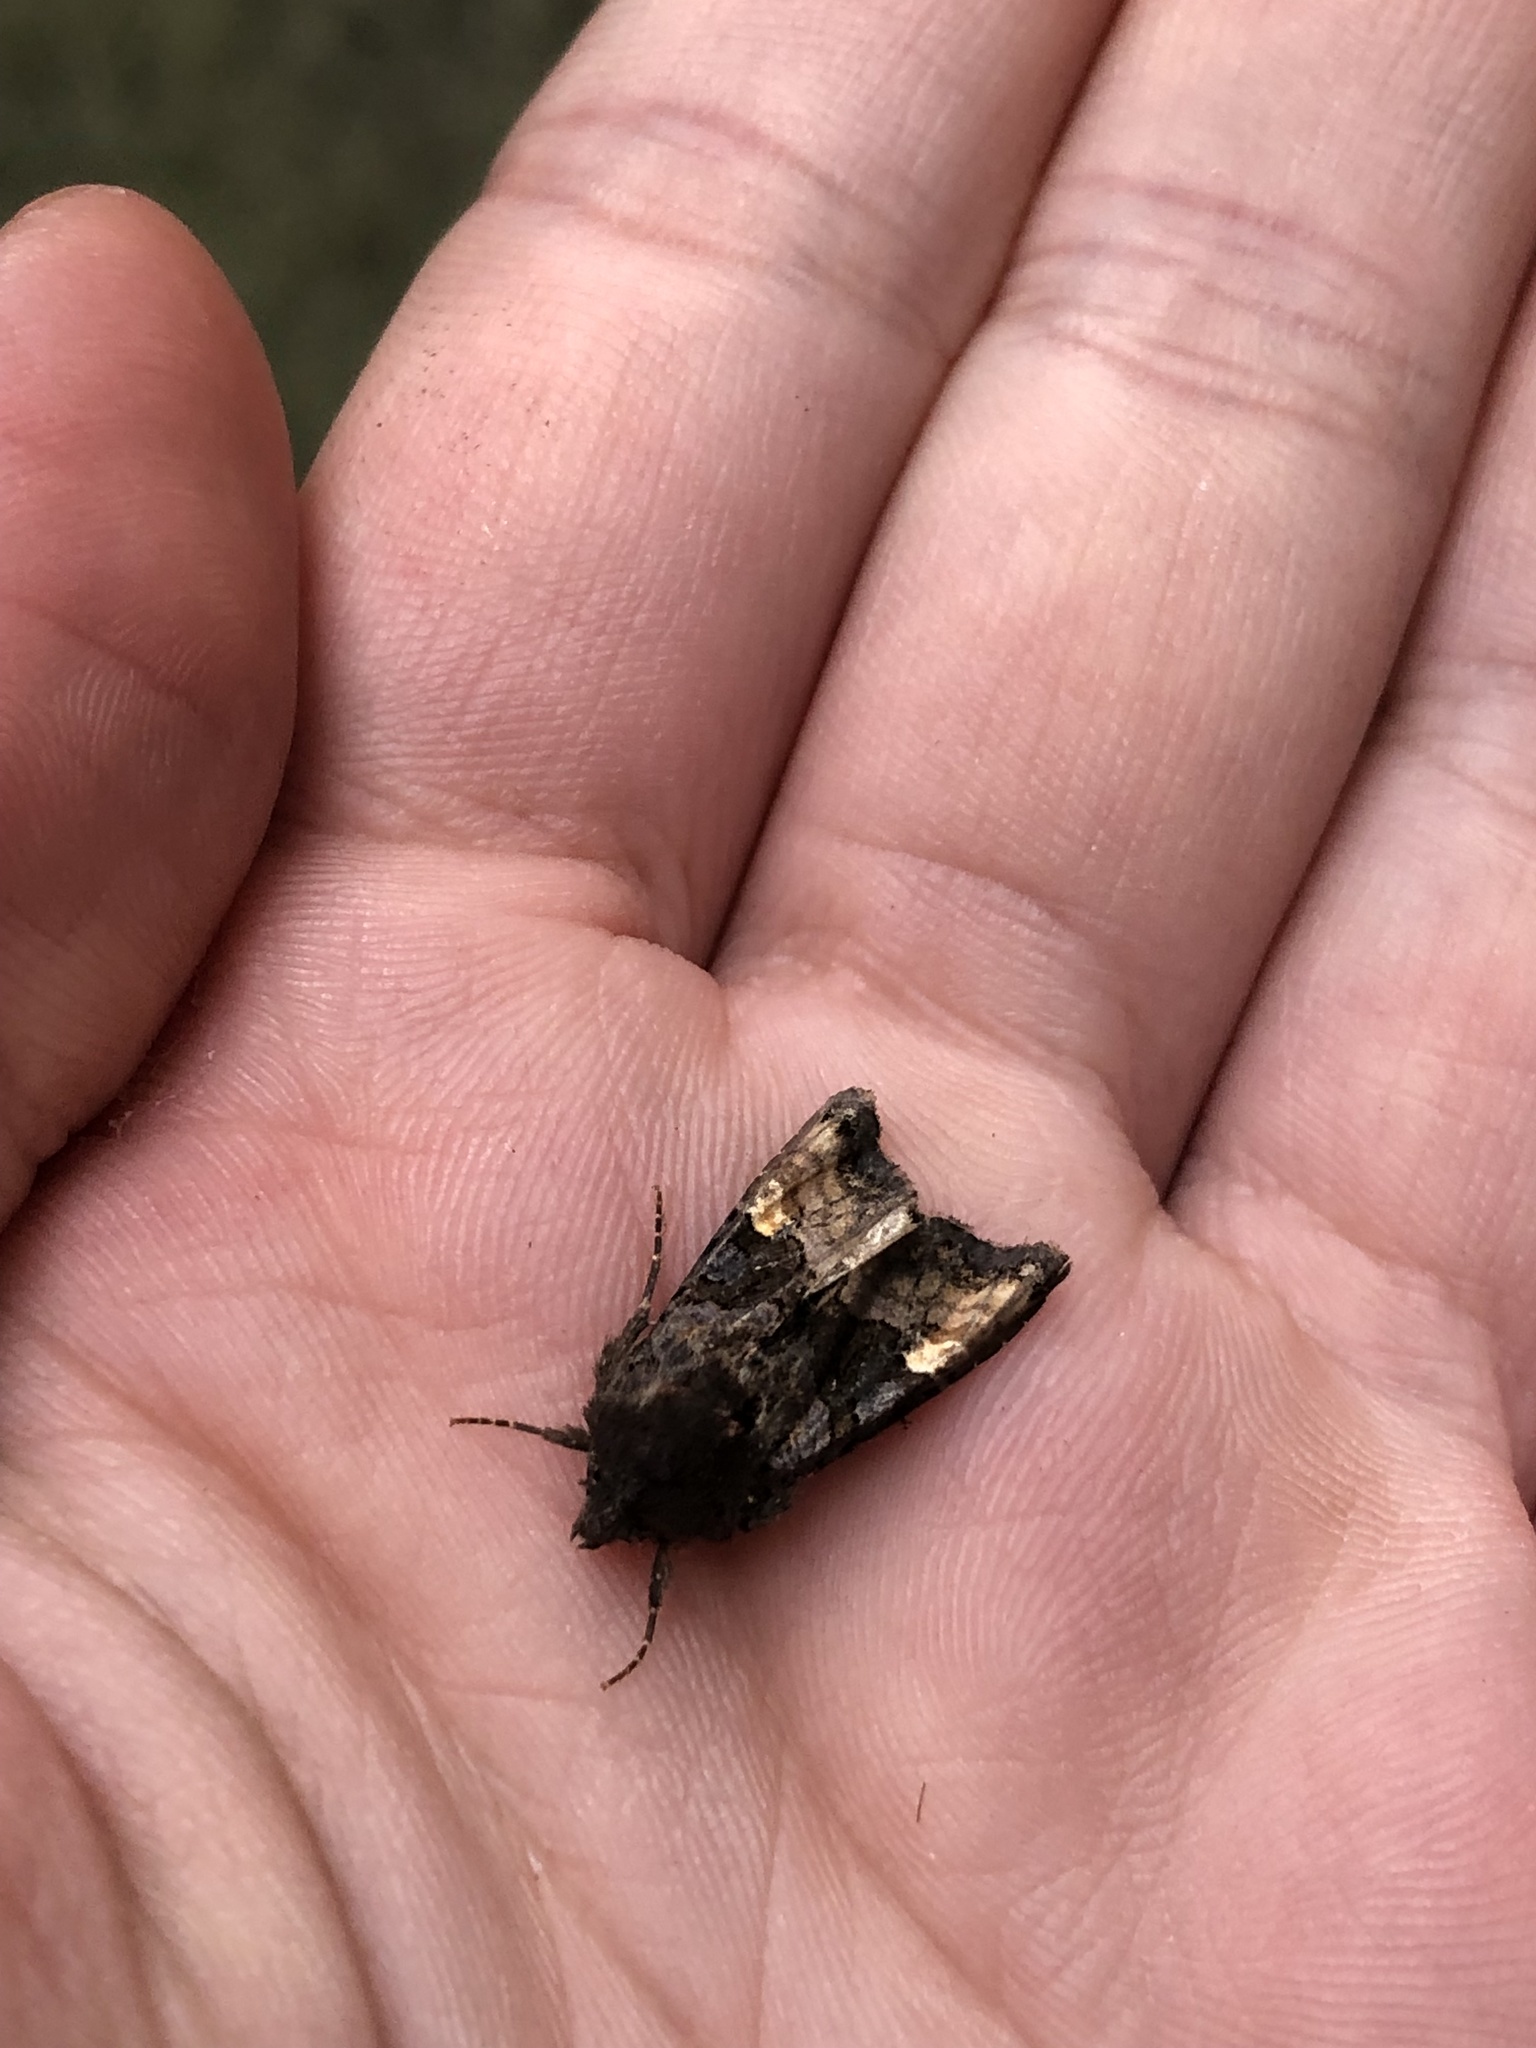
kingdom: Animalia
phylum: Arthropoda
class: Insecta
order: Lepidoptera
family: Noctuidae
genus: Euplexia
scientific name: Euplexia lucipara
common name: Small angle shades
